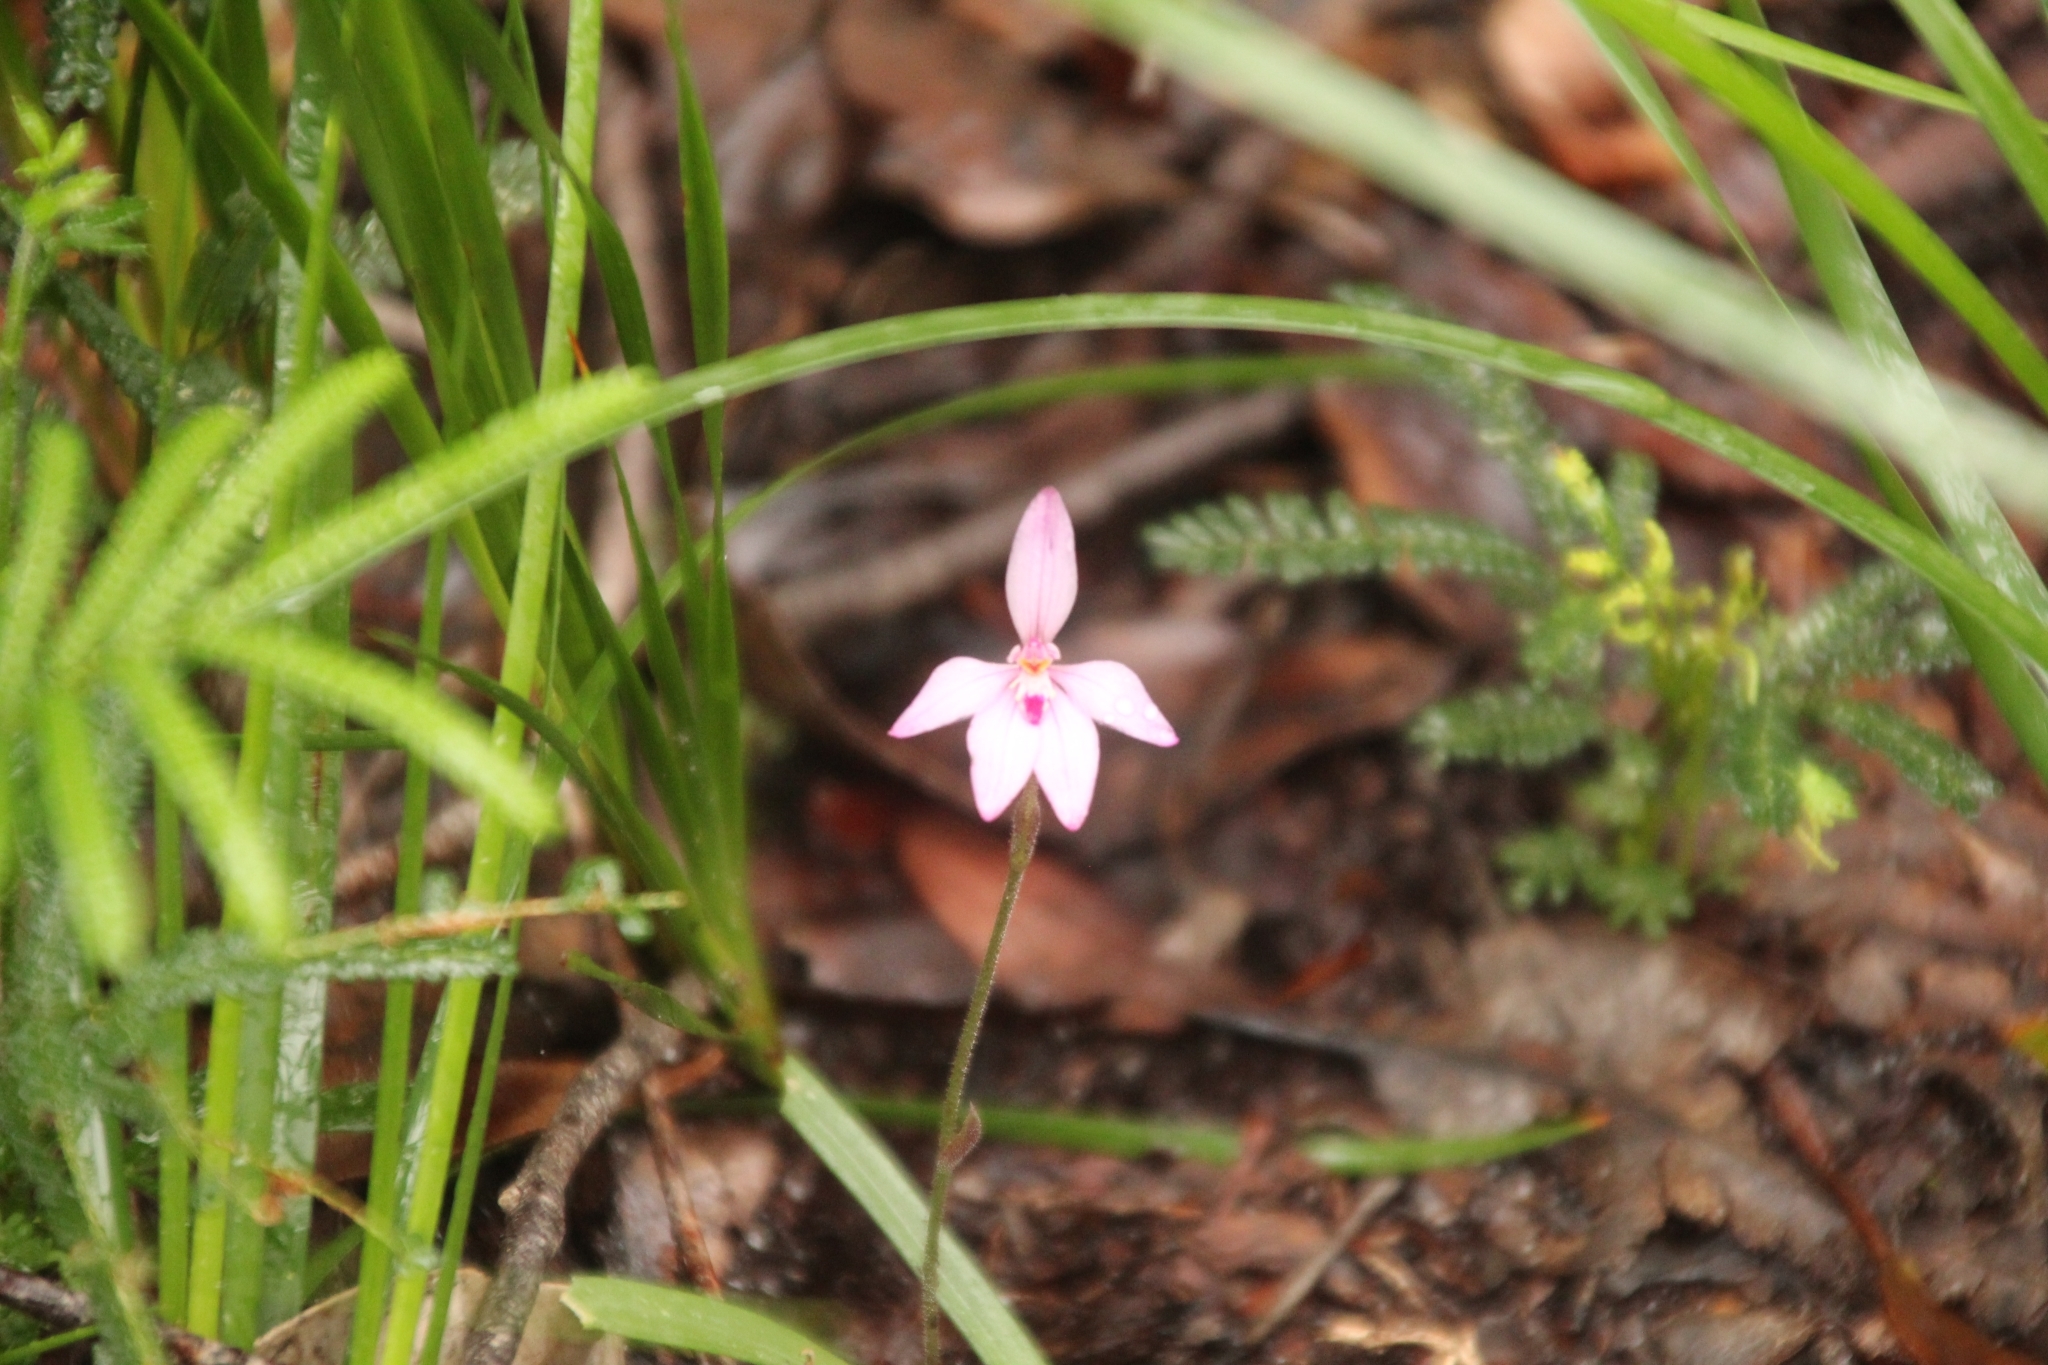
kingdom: Plantae
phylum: Tracheophyta
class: Liliopsida
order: Asparagales
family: Orchidaceae
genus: Caladenia
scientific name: Caladenia reptans
